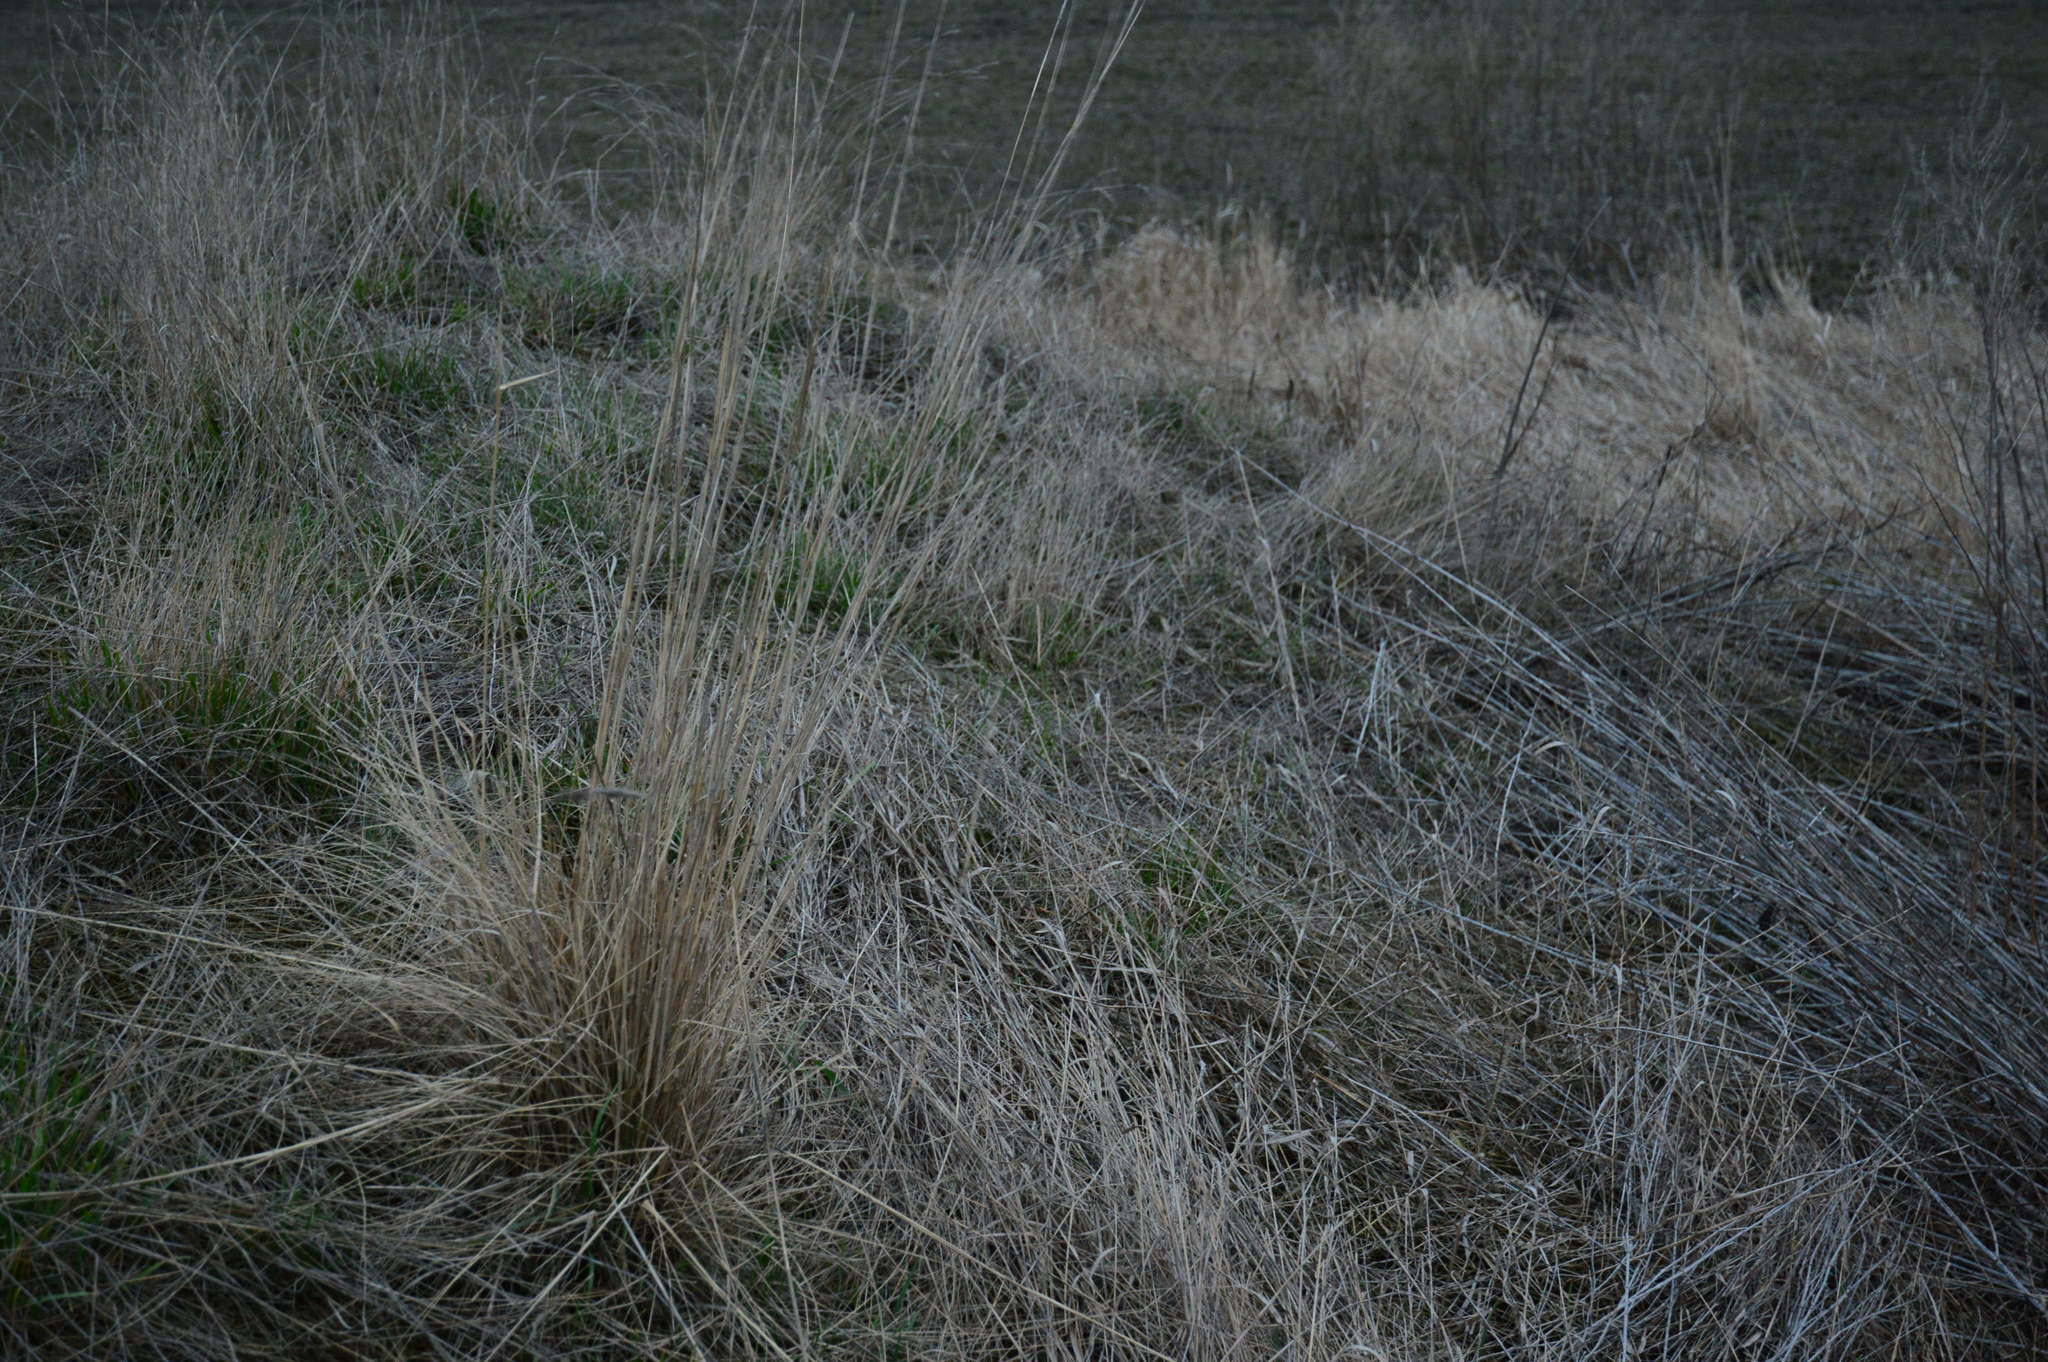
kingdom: Plantae
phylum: Tracheophyta
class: Liliopsida
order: Poales
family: Poaceae
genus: Stipa
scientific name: Stipa capillata
